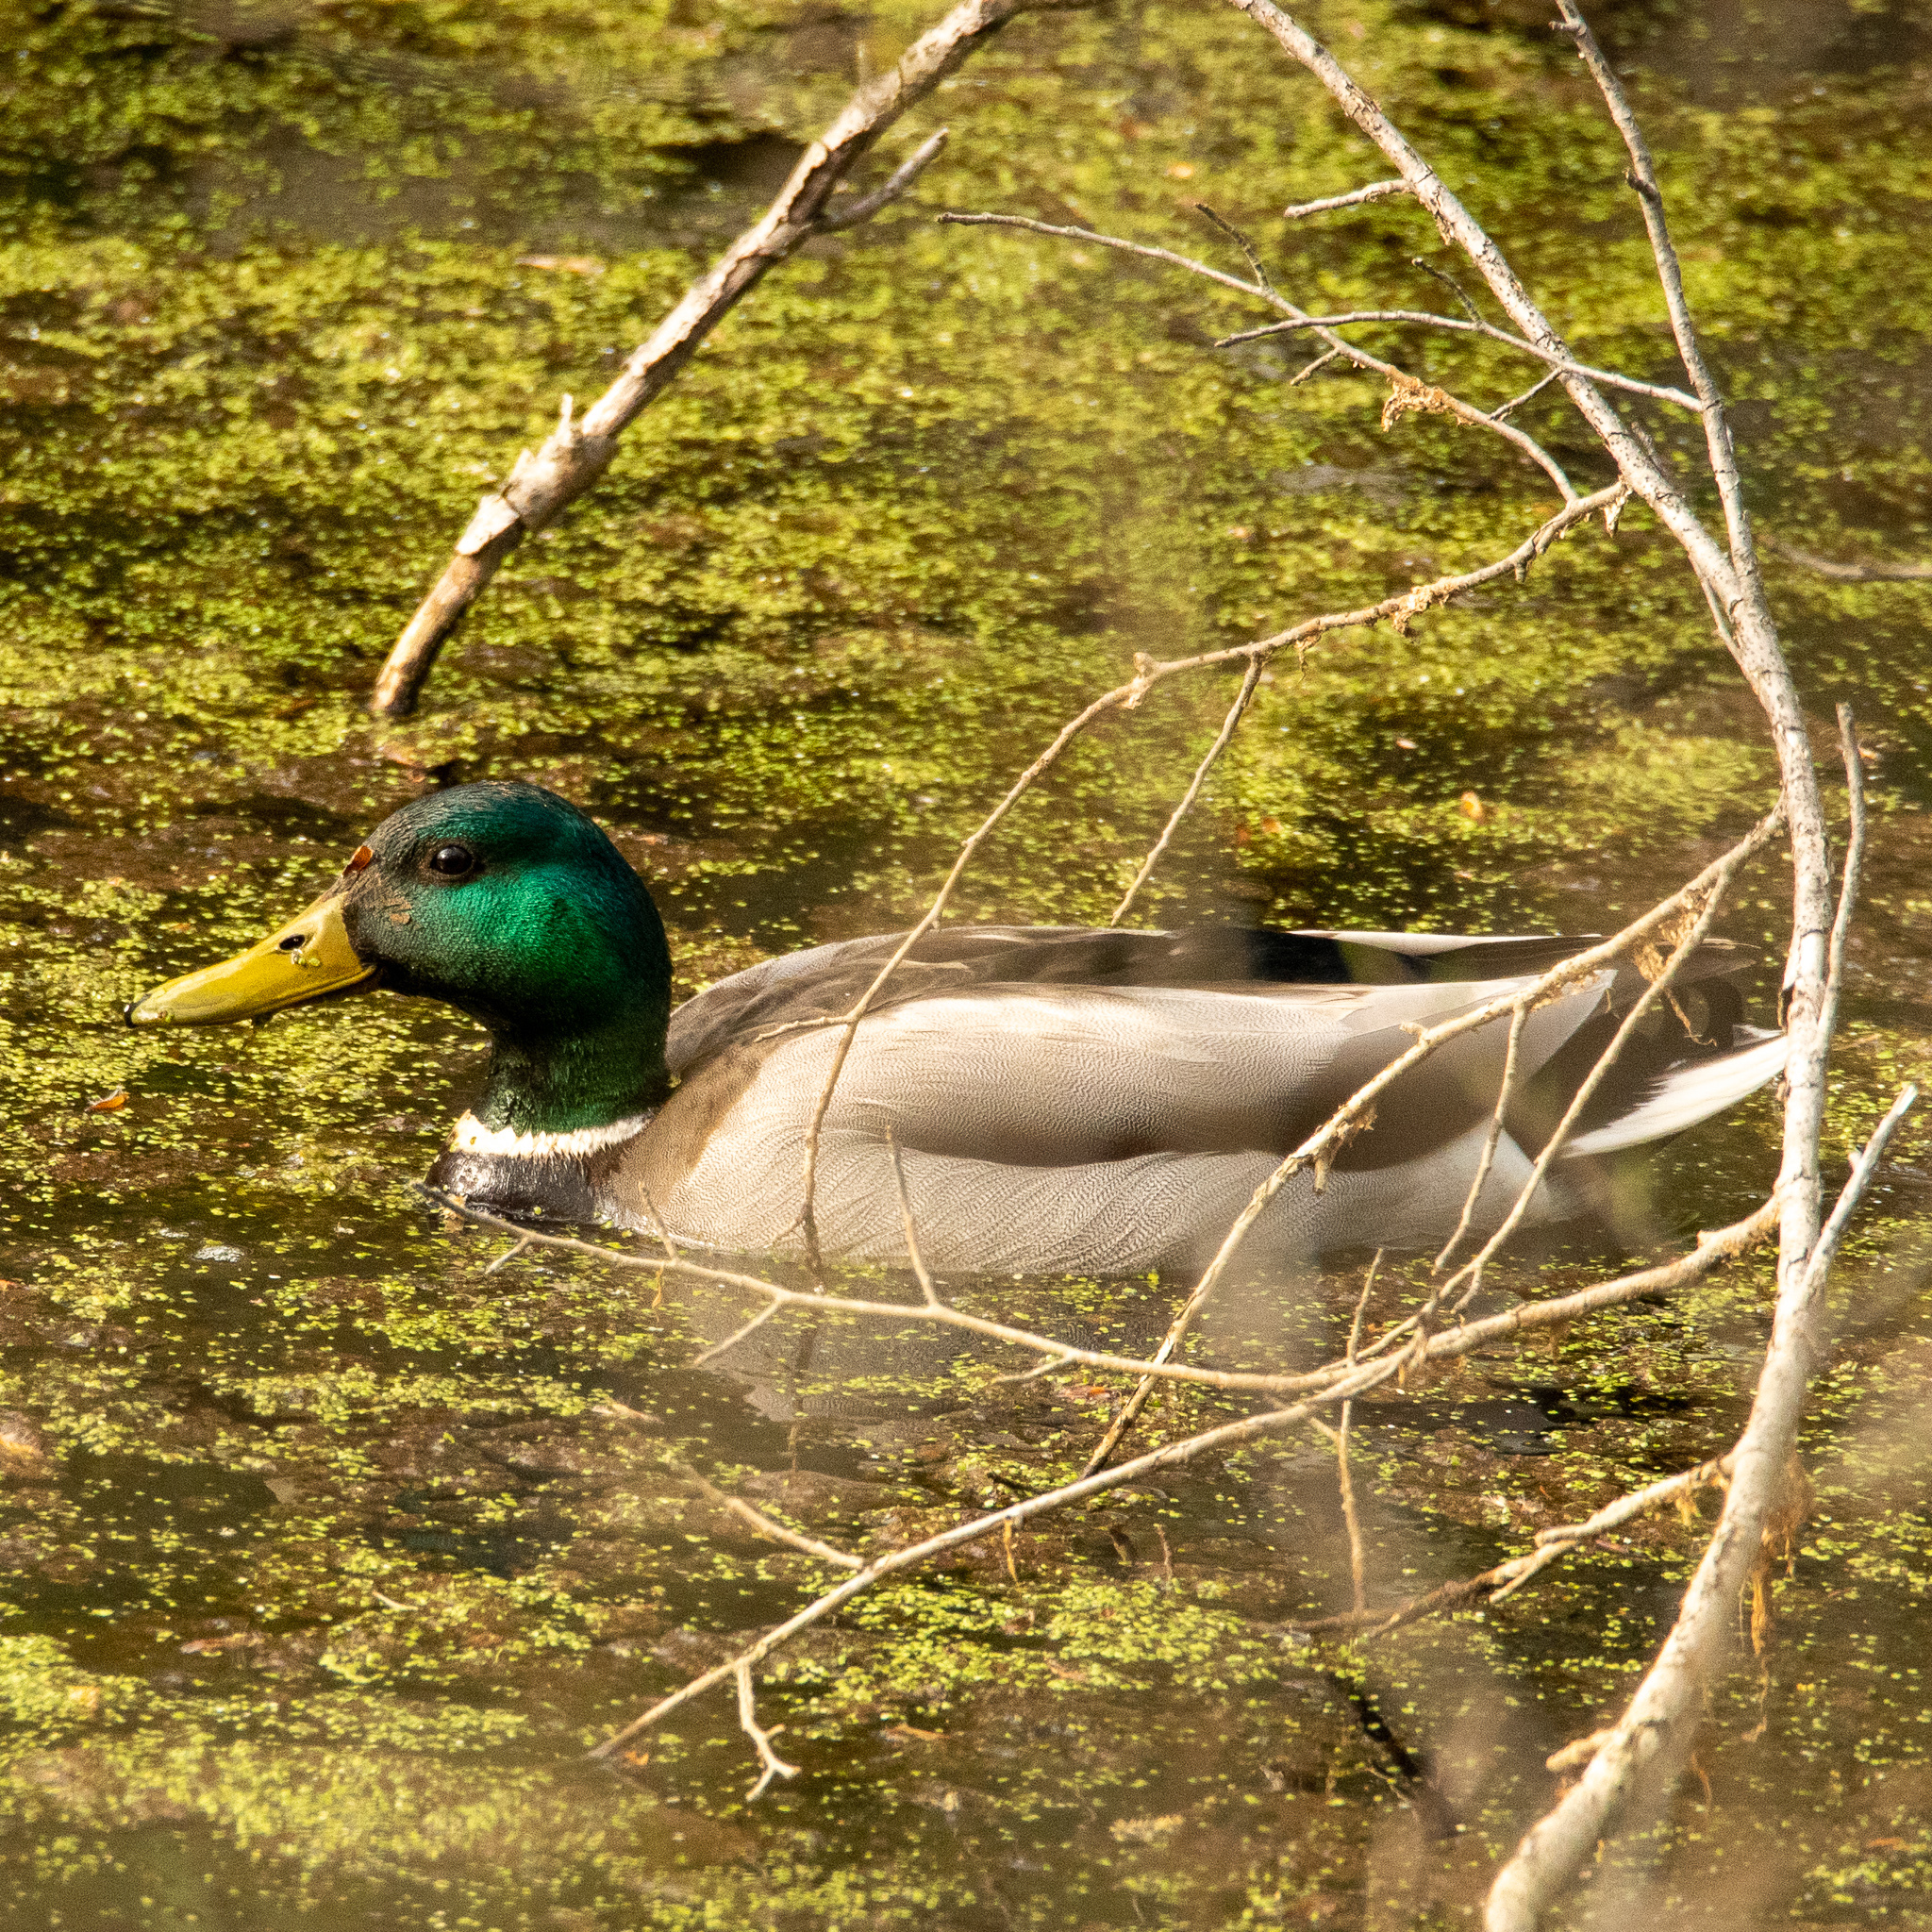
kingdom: Animalia
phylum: Chordata
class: Aves
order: Anseriformes
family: Anatidae
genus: Anas
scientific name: Anas platyrhynchos
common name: Mallard
